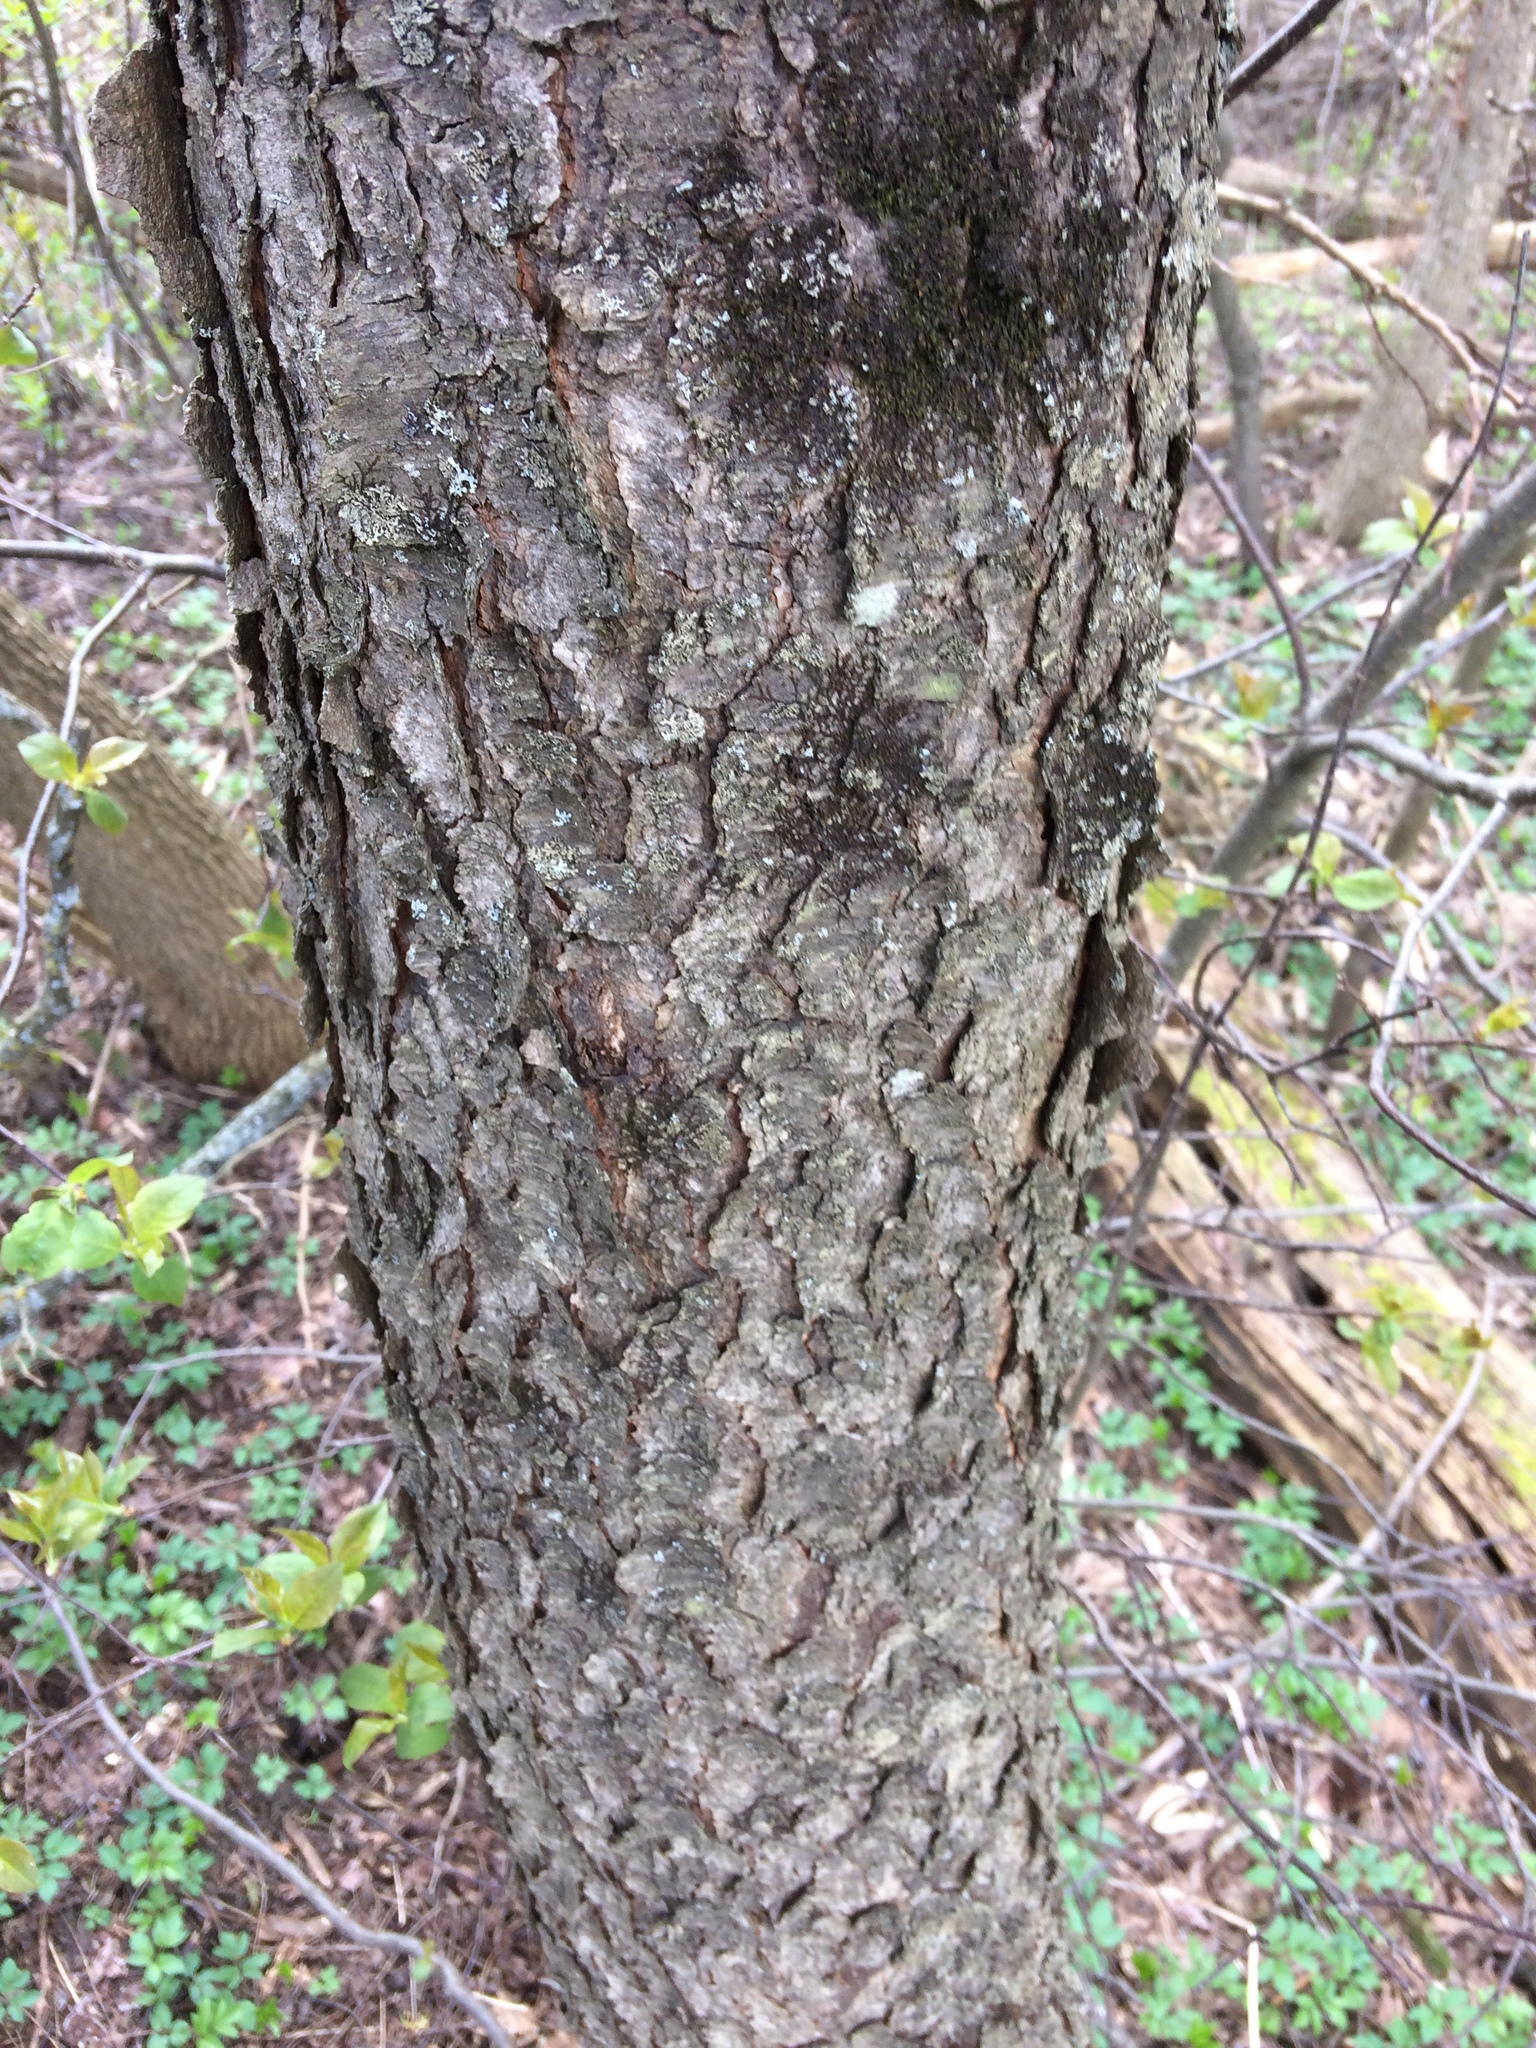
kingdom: Plantae
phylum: Tracheophyta
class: Magnoliopsida
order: Rosales
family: Rosaceae
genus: Prunus
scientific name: Prunus serotina
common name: Black cherry
